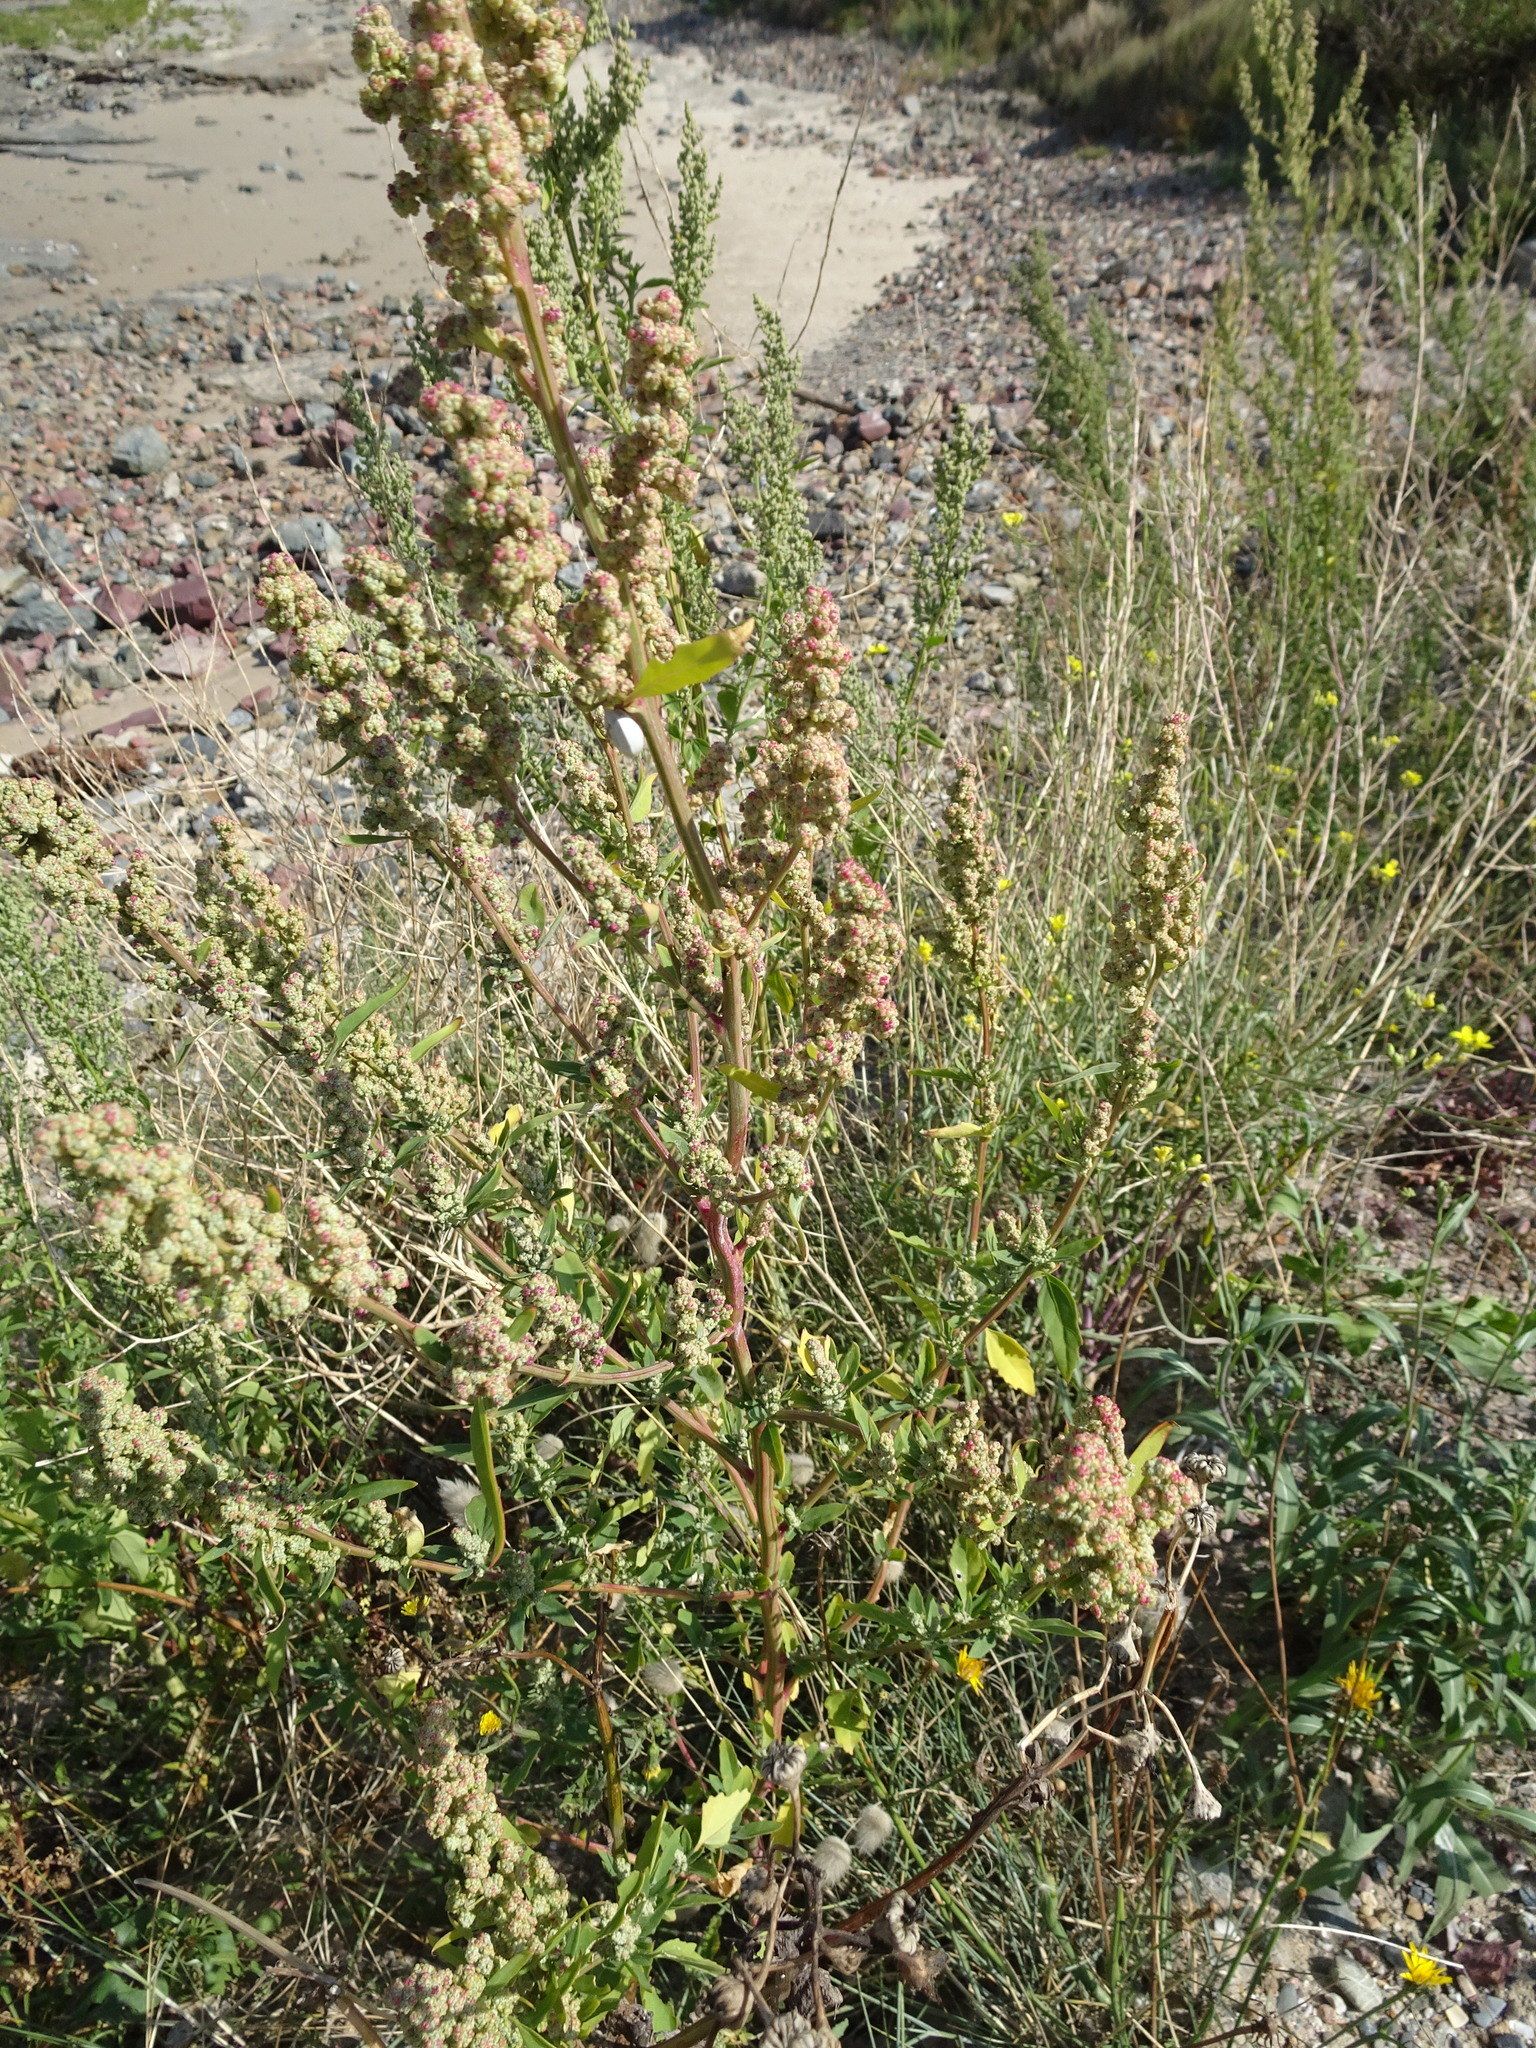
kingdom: Plantae
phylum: Tracheophyta
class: Magnoliopsida
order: Caryophyllales
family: Amaranthaceae
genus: Chenopodium
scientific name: Chenopodium album
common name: Fat-hen
